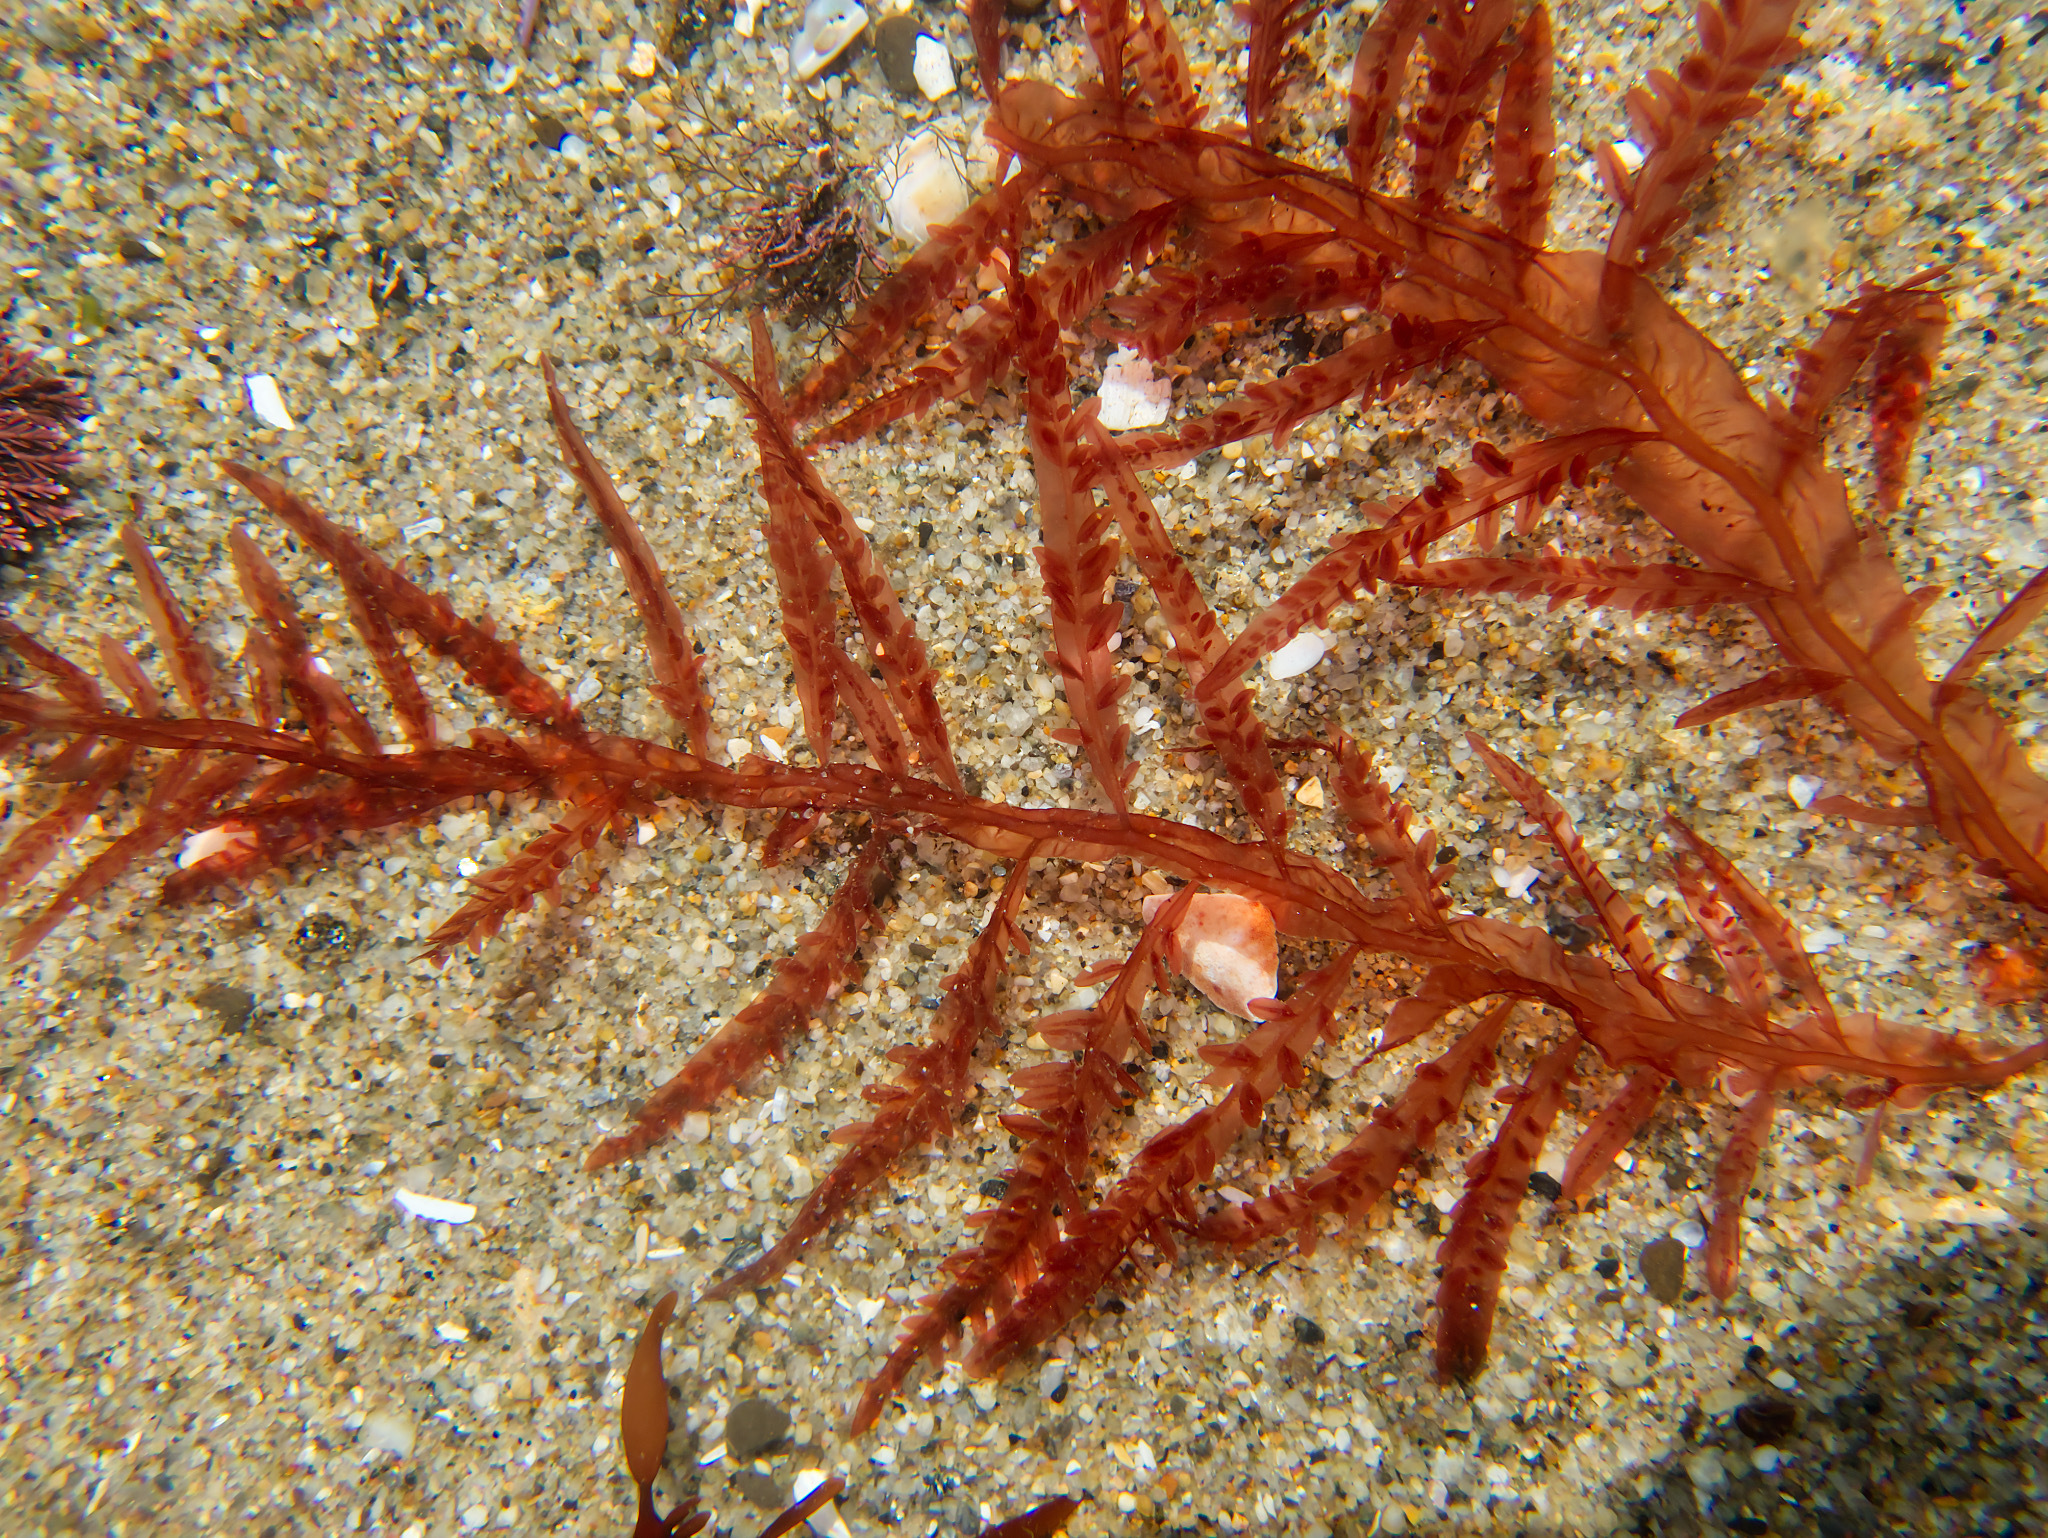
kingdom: Plantae
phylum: Rhodophyta
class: Florideophyceae
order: Ceramiales
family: Delesseriaceae
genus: Cumathamnion
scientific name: Cumathamnion decipiens
